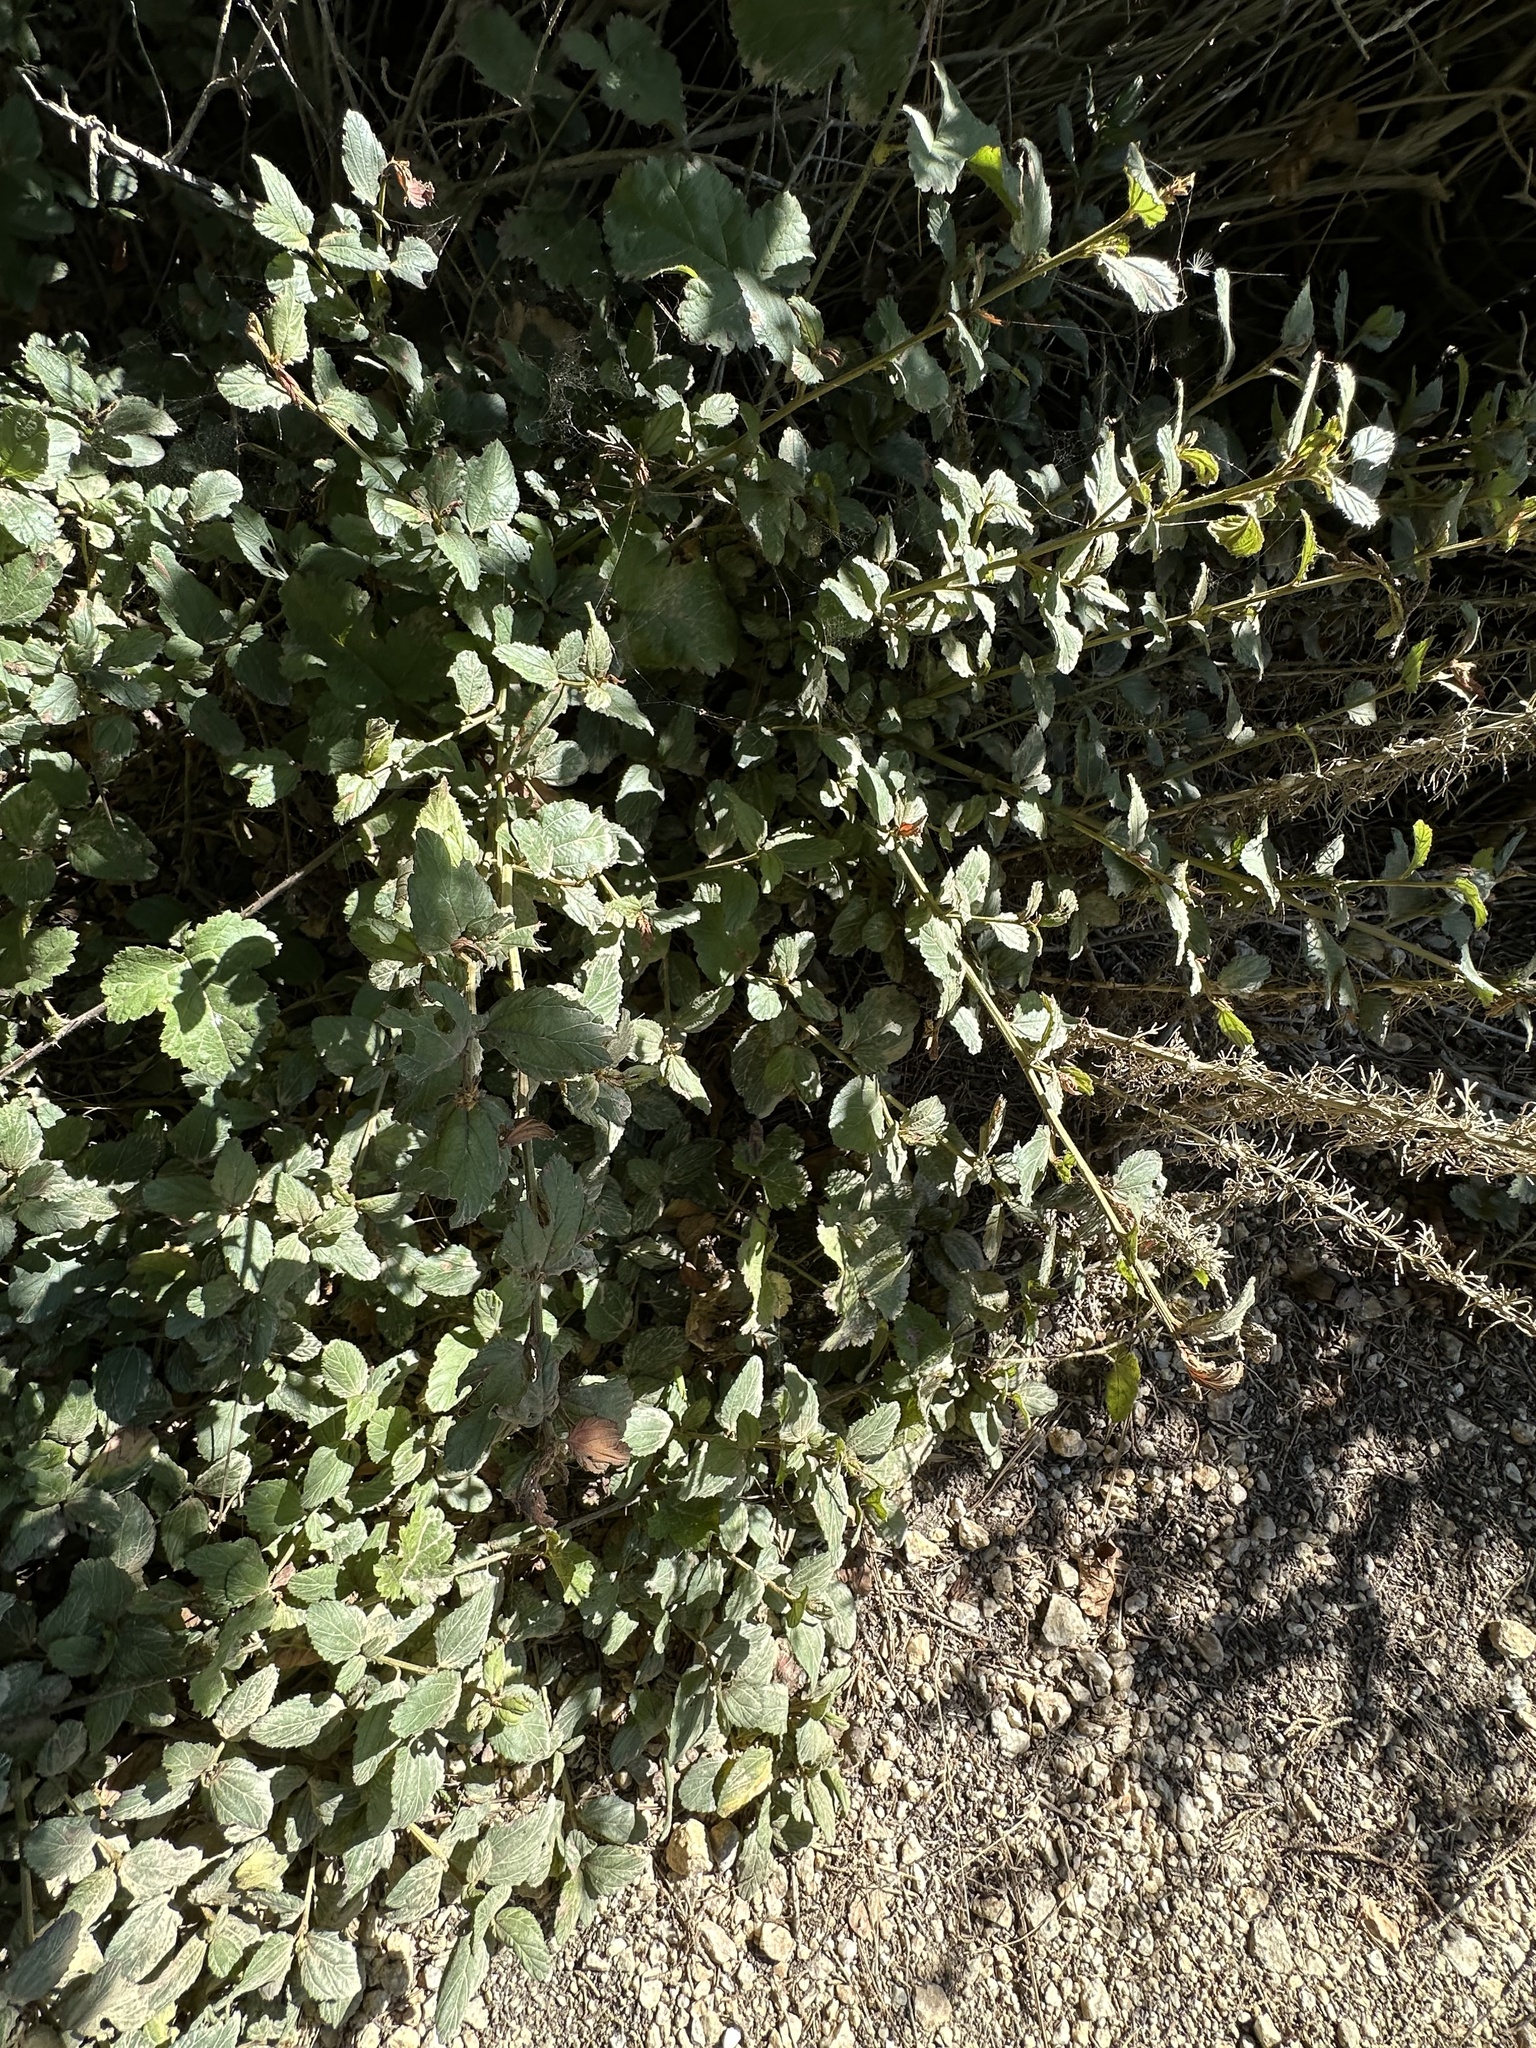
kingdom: Plantae
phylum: Tracheophyta
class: Magnoliopsida
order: Rosales
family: Rhamnaceae
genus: Ceanothus
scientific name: Ceanothus thyrsiflorus
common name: California-lilac
